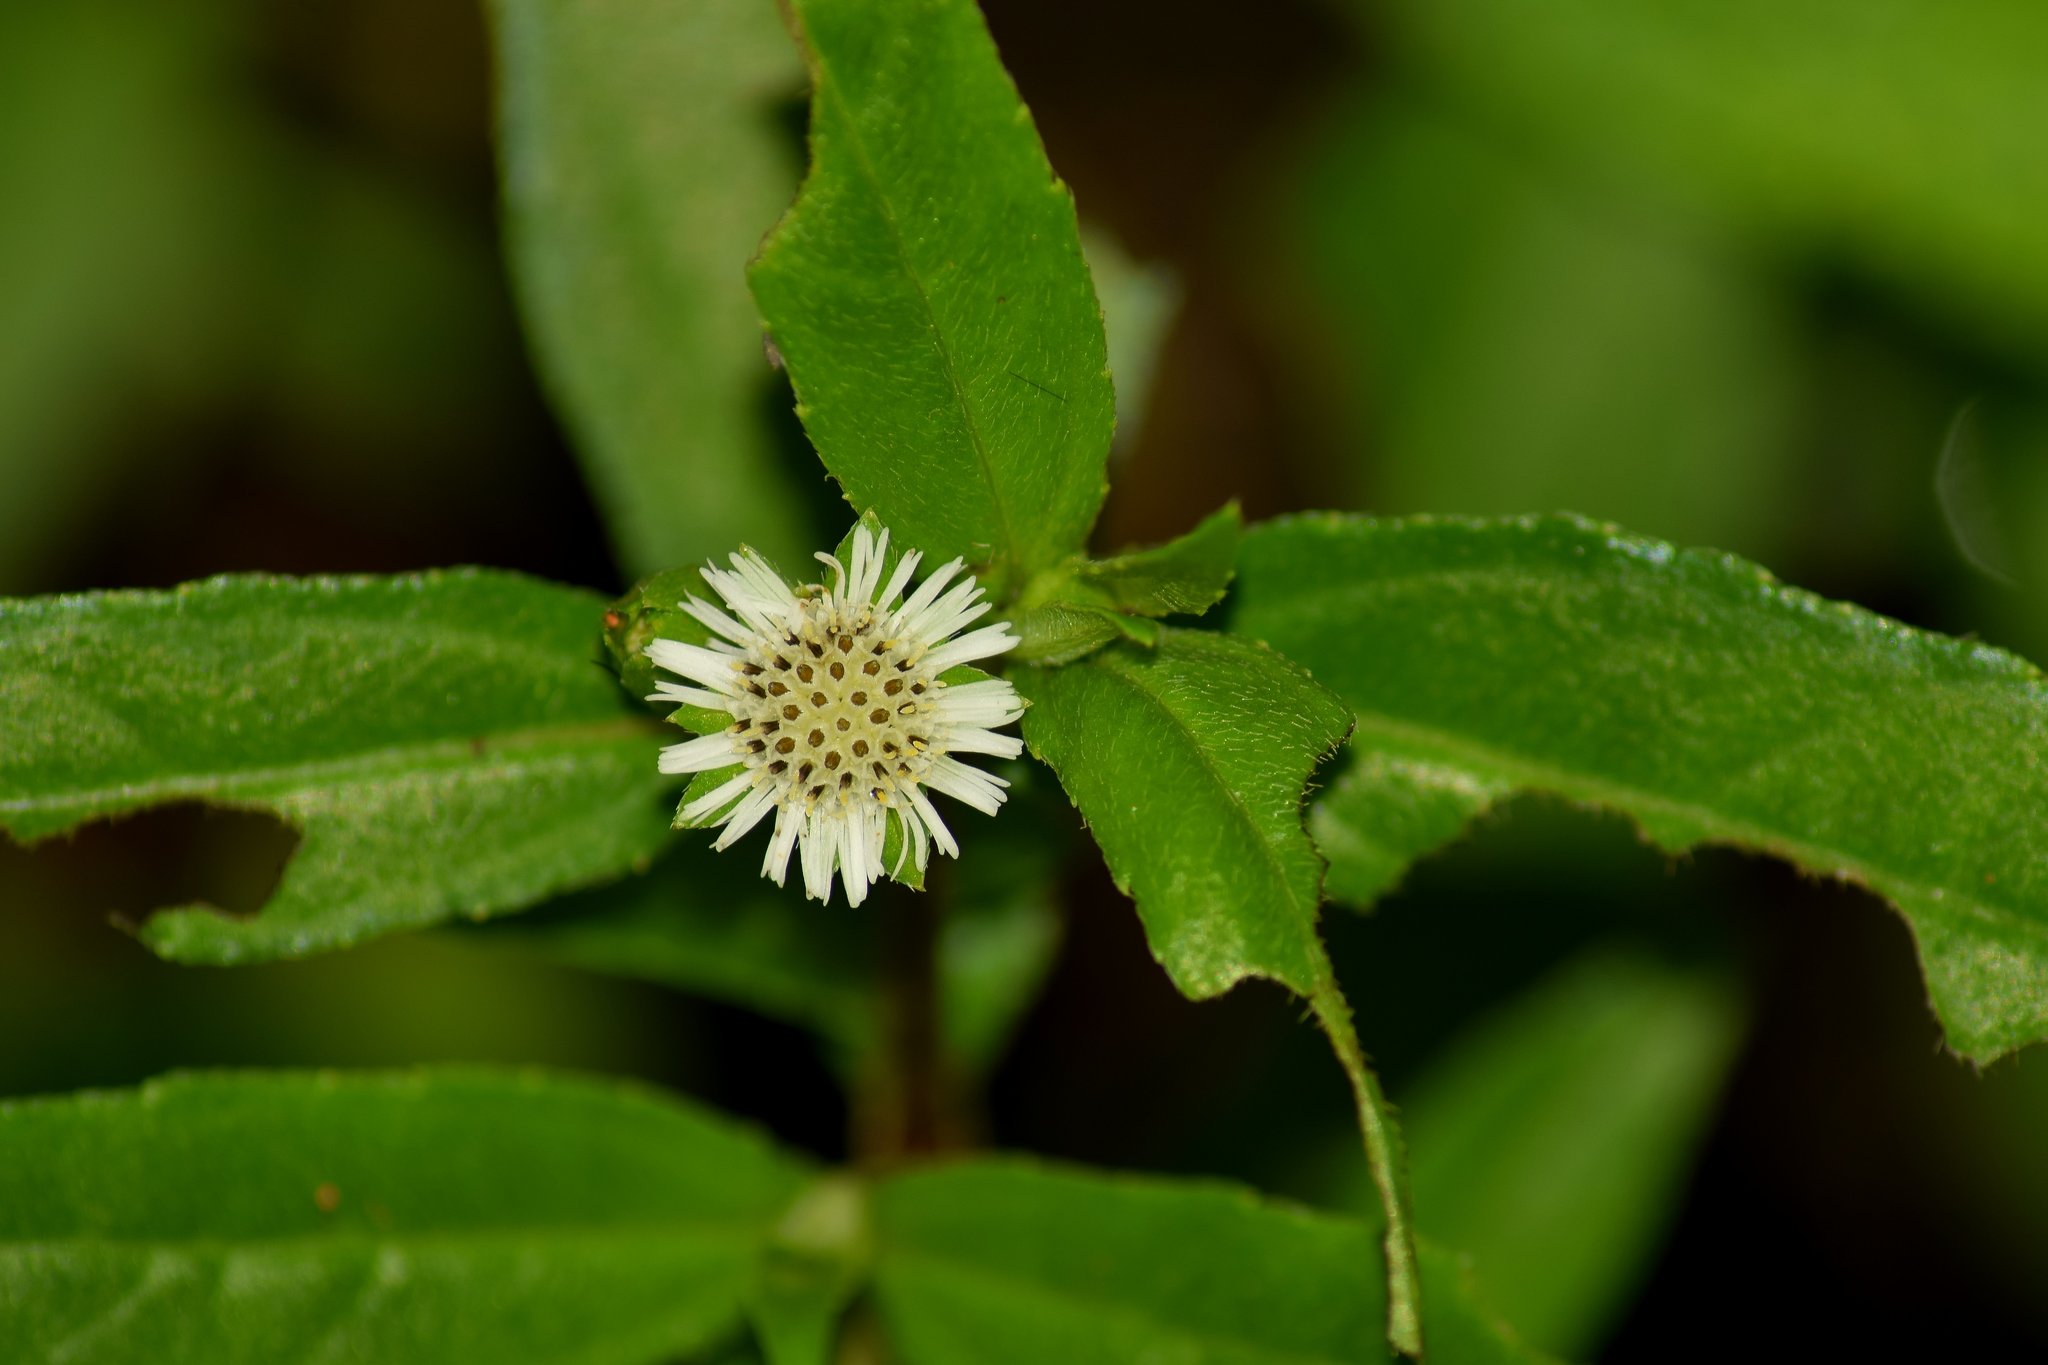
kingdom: Plantae
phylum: Tracheophyta
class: Magnoliopsida
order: Asterales
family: Asteraceae
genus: Eclipta
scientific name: Eclipta prostrata
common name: False daisy
